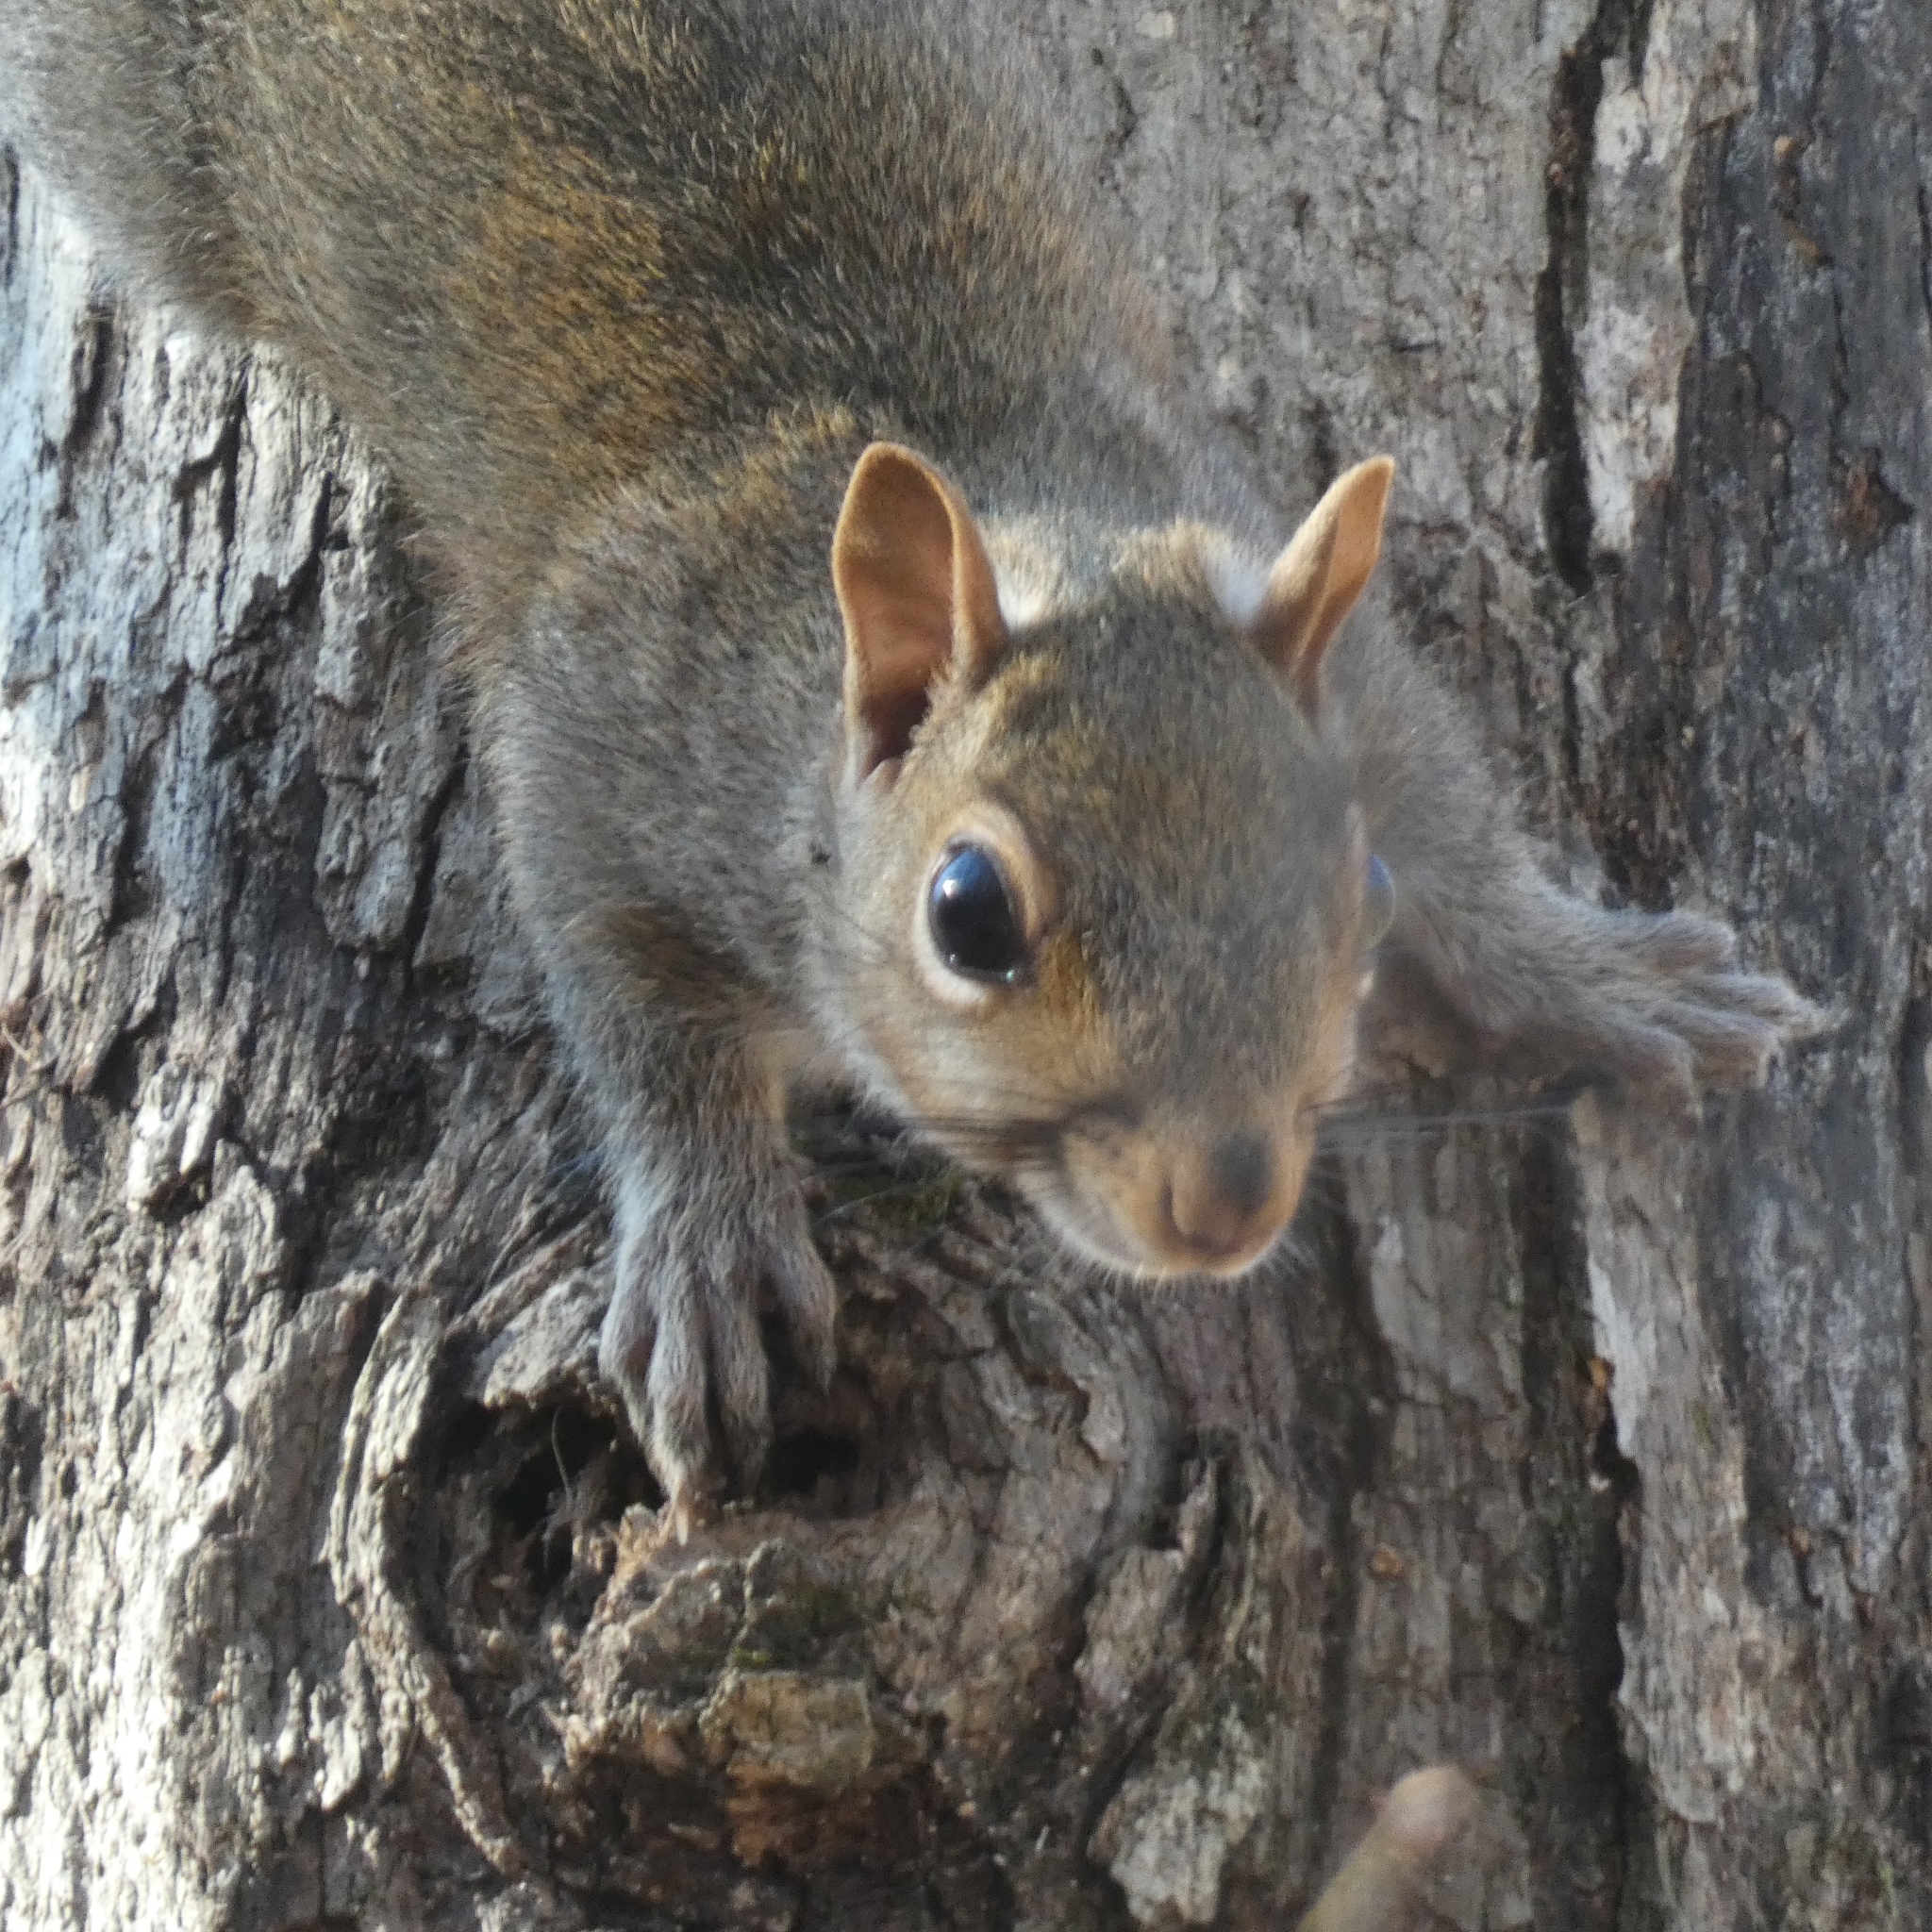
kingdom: Animalia
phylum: Chordata
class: Mammalia
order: Rodentia
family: Sciuridae
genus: Sciurus
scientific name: Sciurus carolinensis
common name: Eastern gray squirrel
